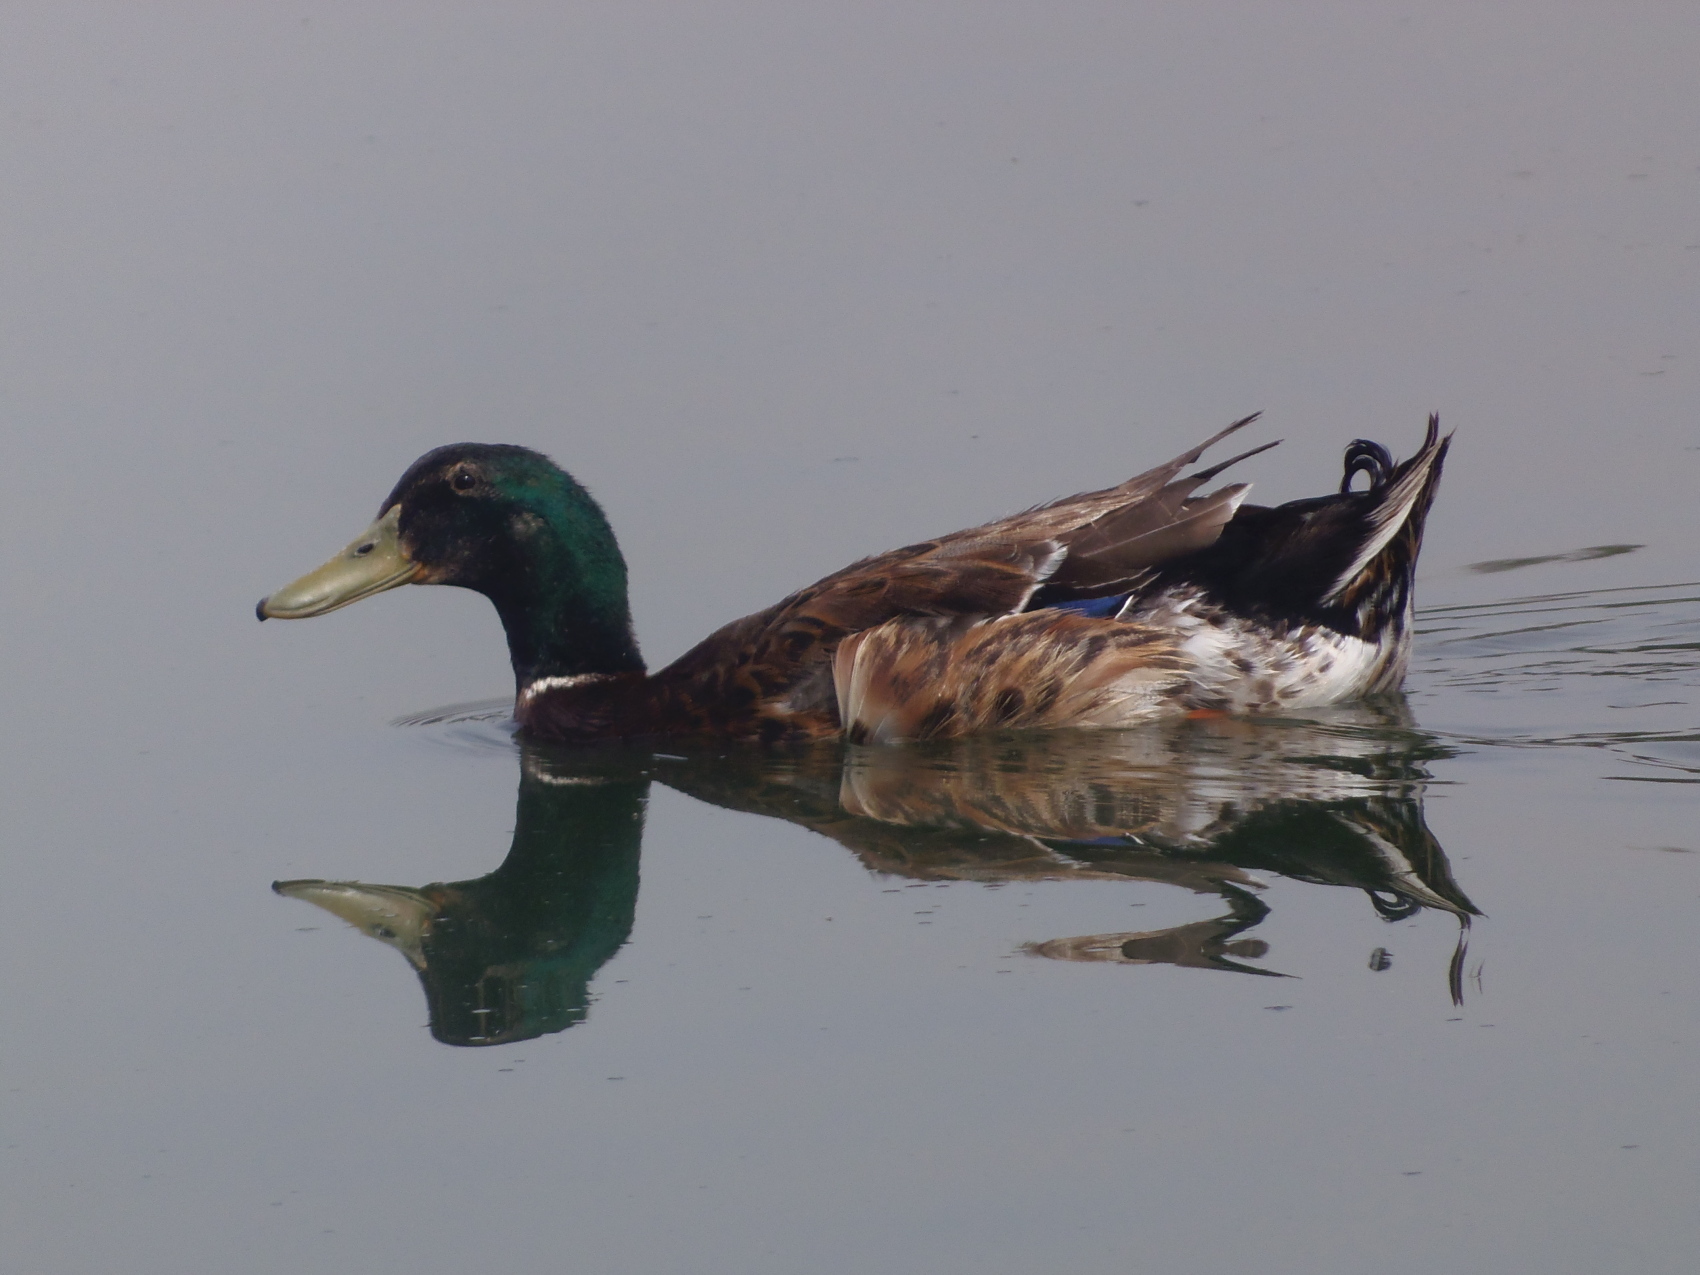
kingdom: Animalia
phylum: Chordata
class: Aves
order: Anseriformes
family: Anatidae
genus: Anas
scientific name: Anas platyrhynchos
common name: Mallard
